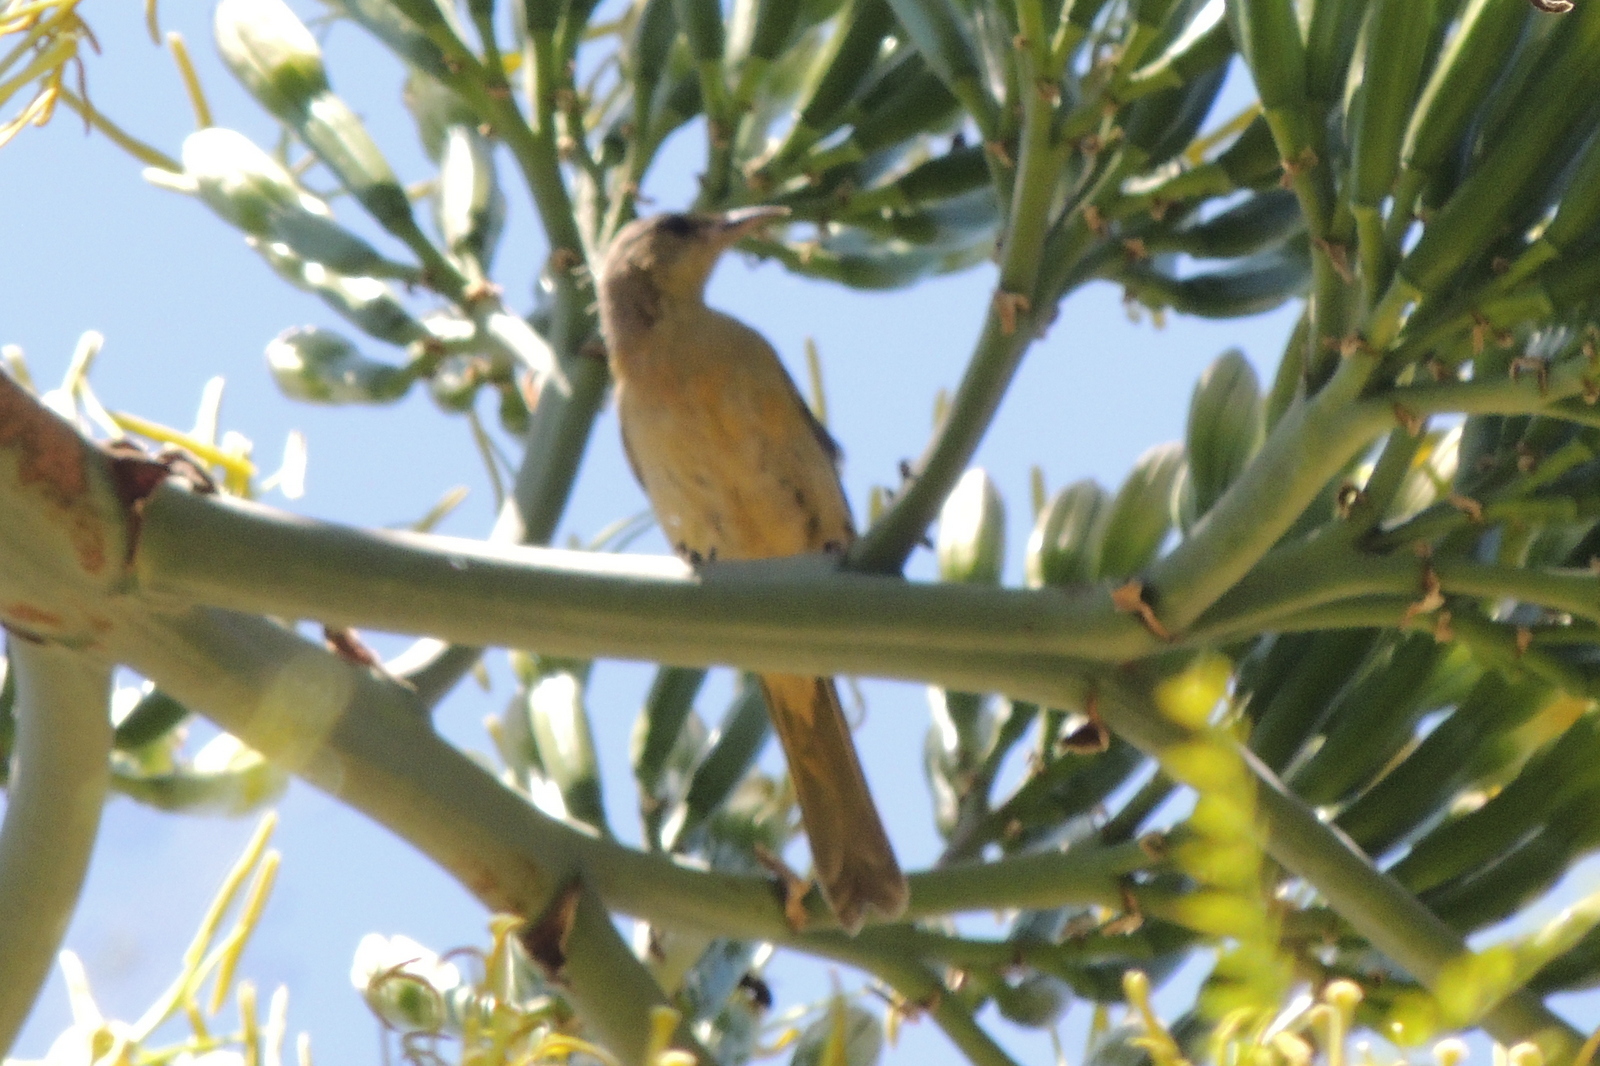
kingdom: Animalia
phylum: Chordata
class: Aves
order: Passeriformes
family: Icteridae
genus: Icterus
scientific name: Icterus cucullatus
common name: Hooded oriole
